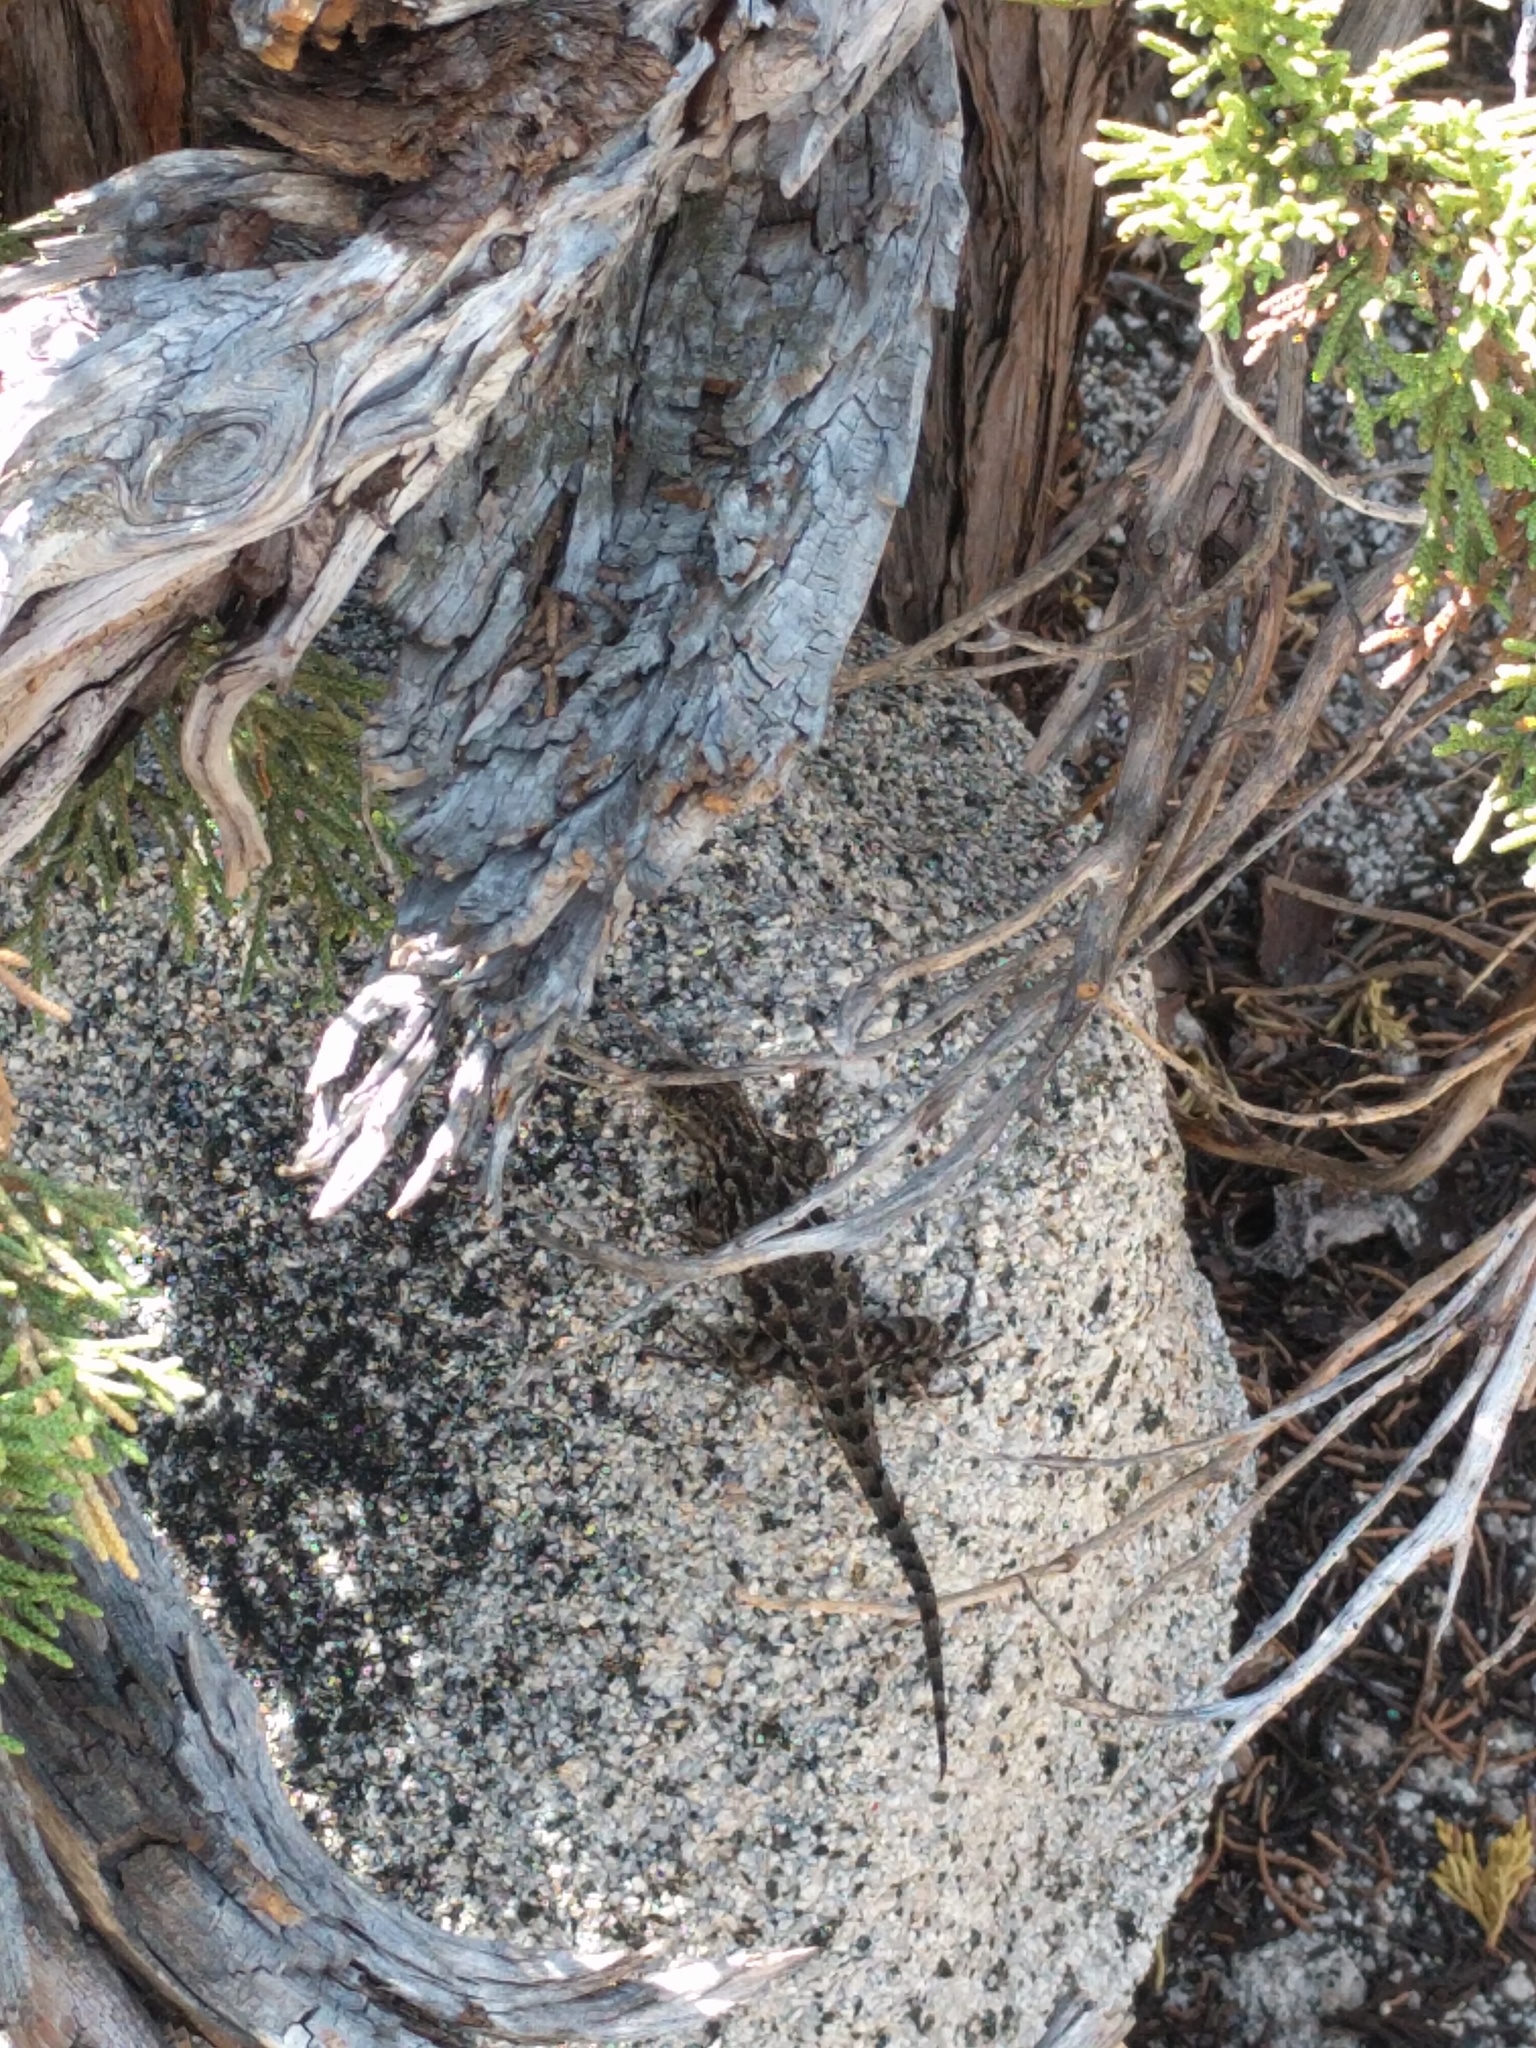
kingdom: Animalia
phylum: Chordata
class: Squamata
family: Phrynosomatidae
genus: Sceloporus
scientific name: Sceloporus occidentalis
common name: Western fence lizard
